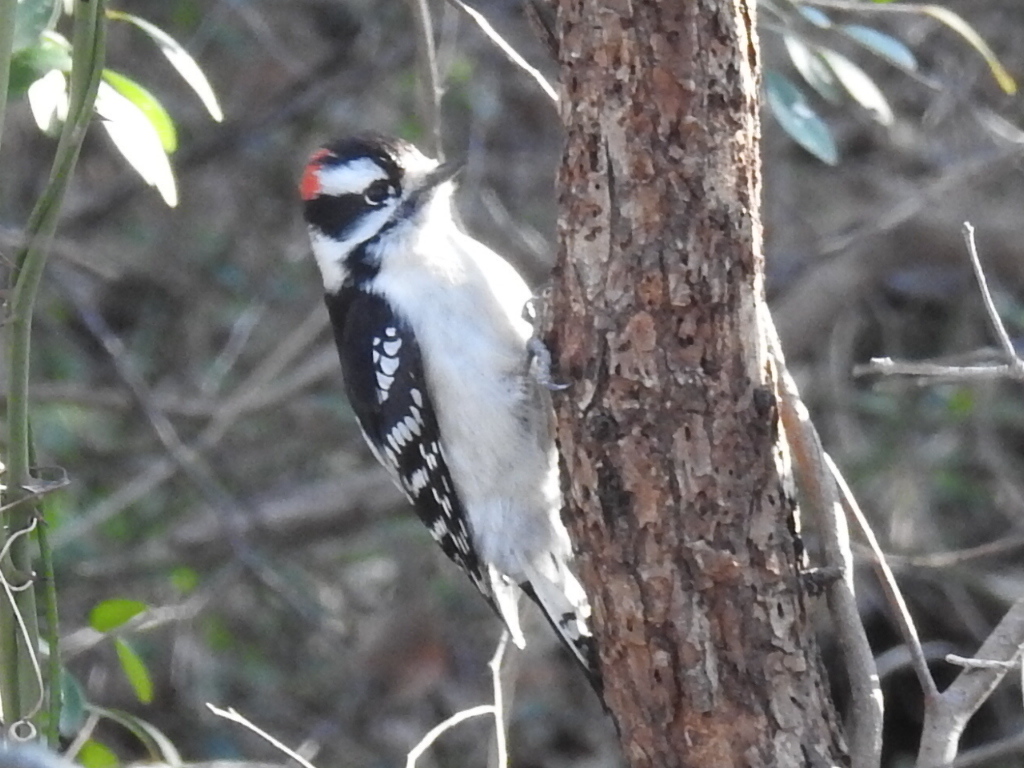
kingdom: Animalia
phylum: Chordata
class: Aves
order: Piciformes
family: Picidae
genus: Dryobates
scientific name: Dryobates pubescens
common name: Downy woodpecker
